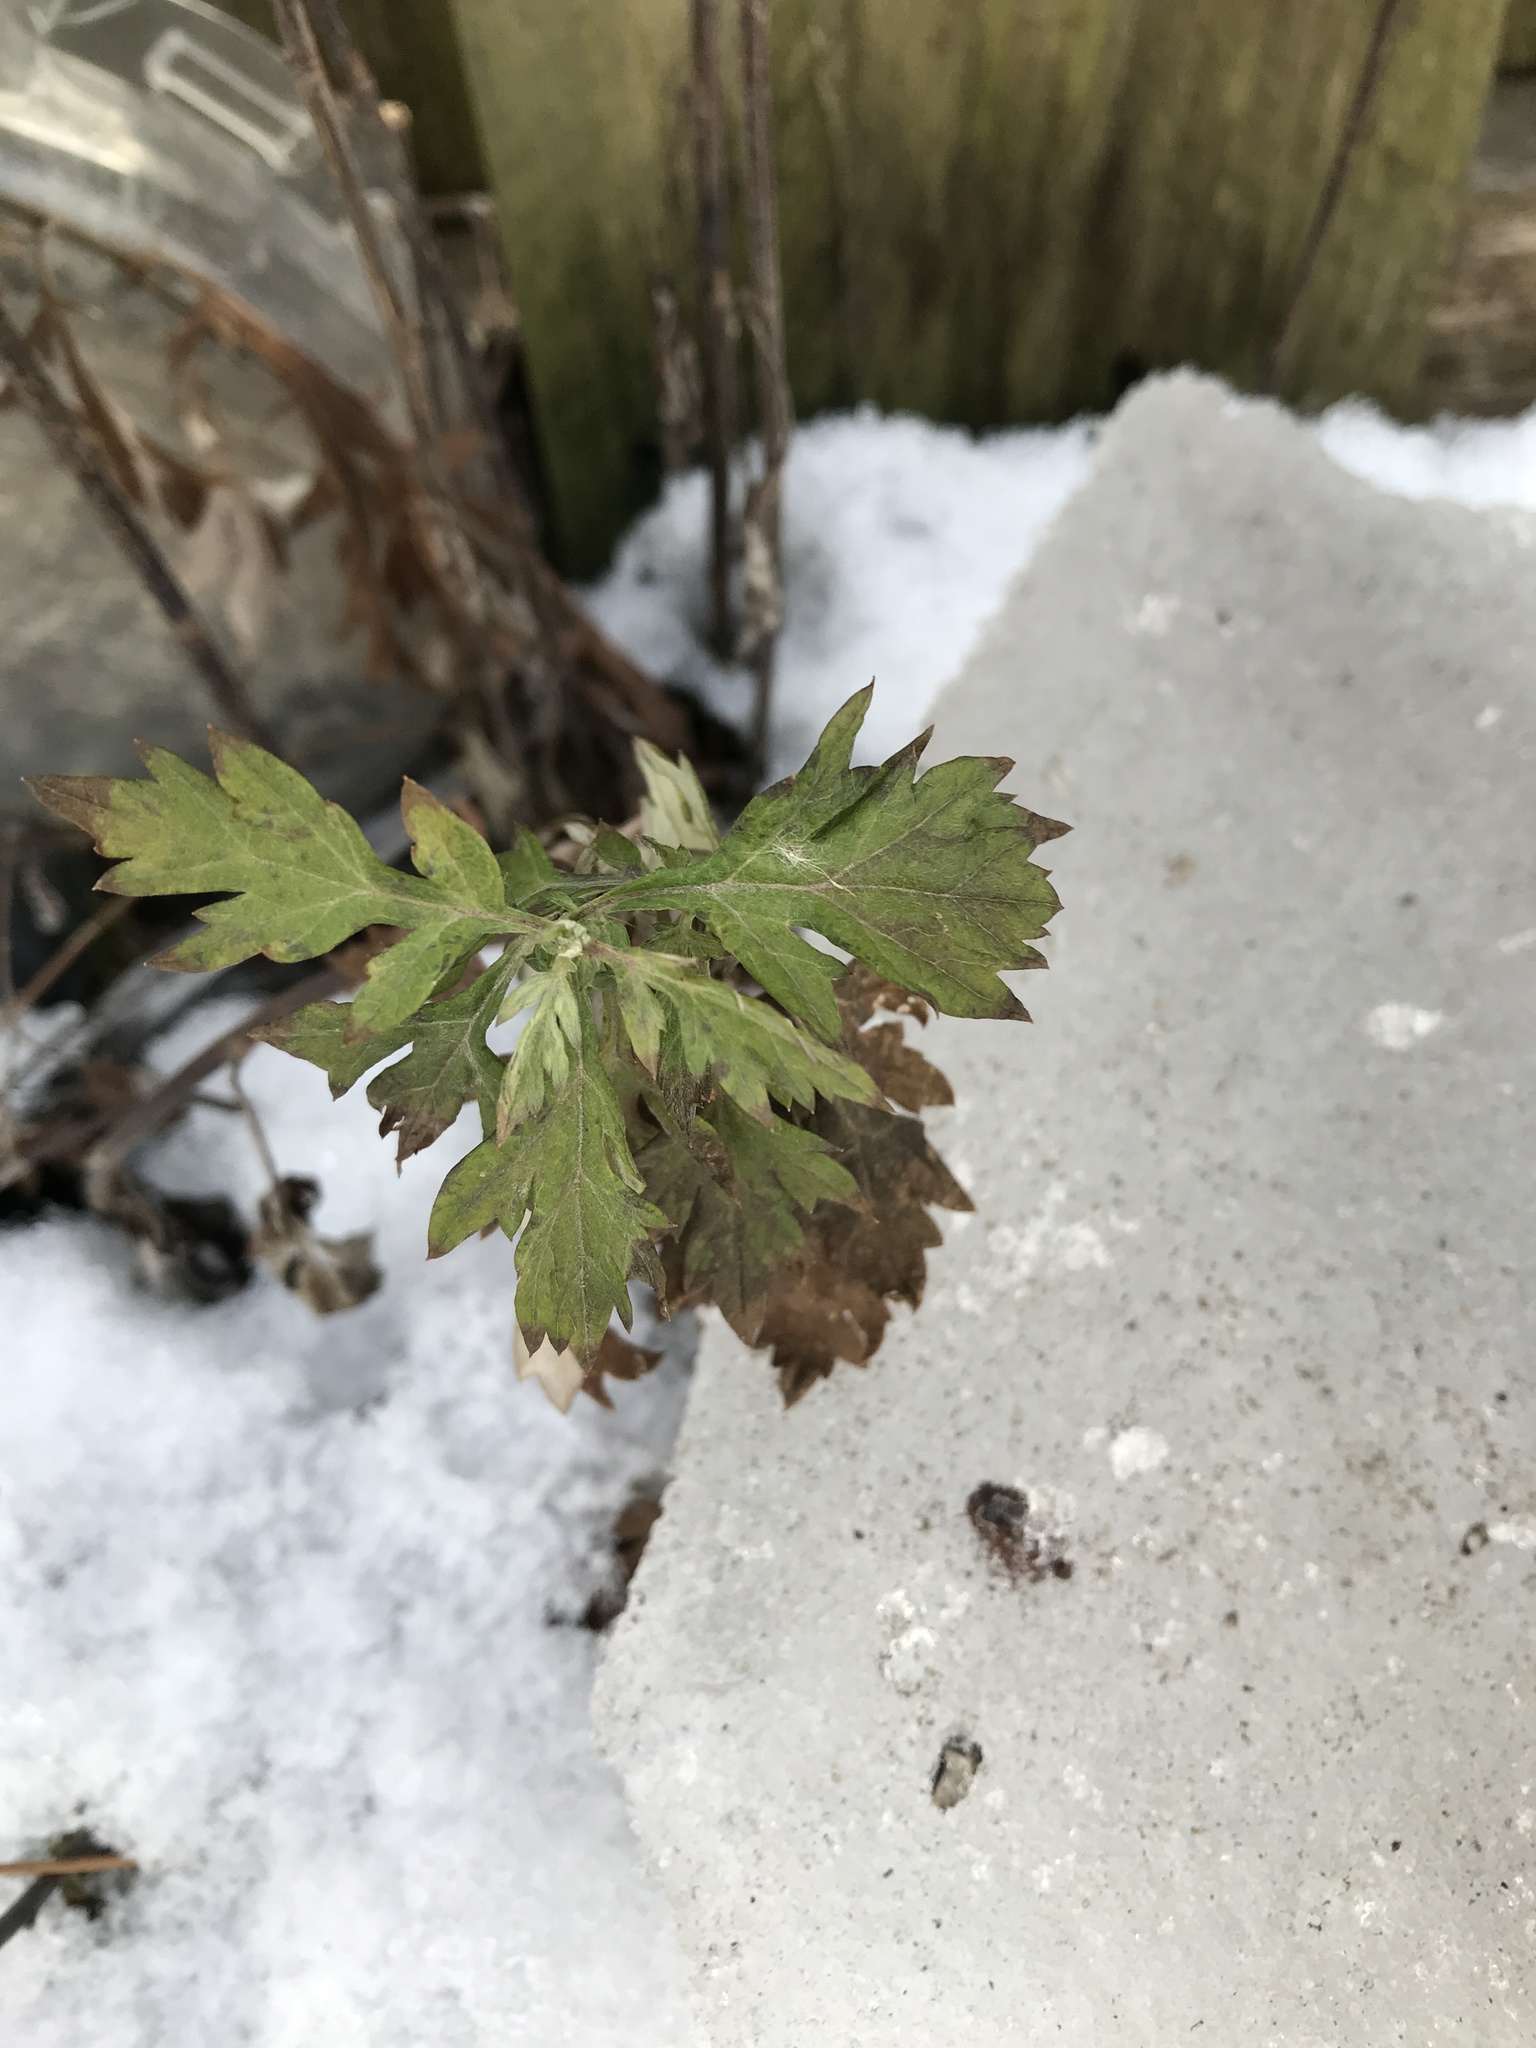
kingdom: Plantae
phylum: Tracheophyta
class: Magnoliopsida
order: Asterales
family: Asteraceae
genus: Artemisia
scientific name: Artemisia vulgaris
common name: Mugwort
